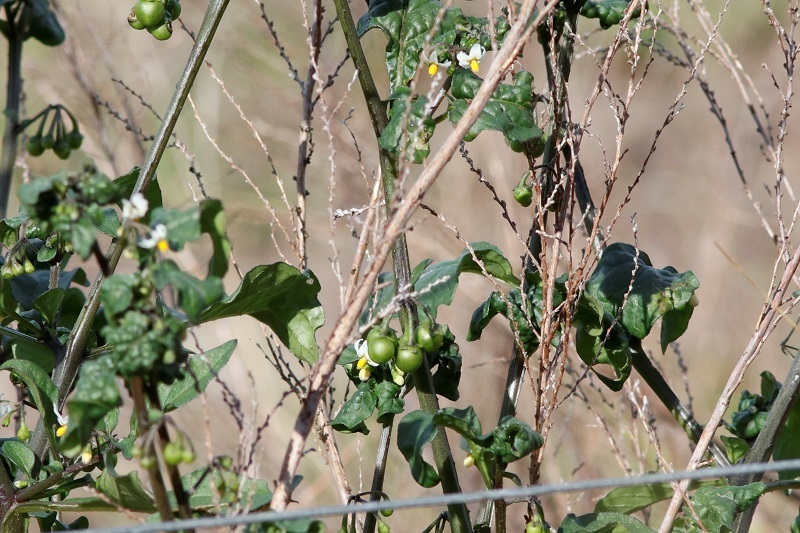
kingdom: Plantae
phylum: Tracheophyta
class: Magnoliopsida
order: Solanales
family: Solanaceae
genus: Solanum
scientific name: Solanum nigrum
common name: Black nightshade
